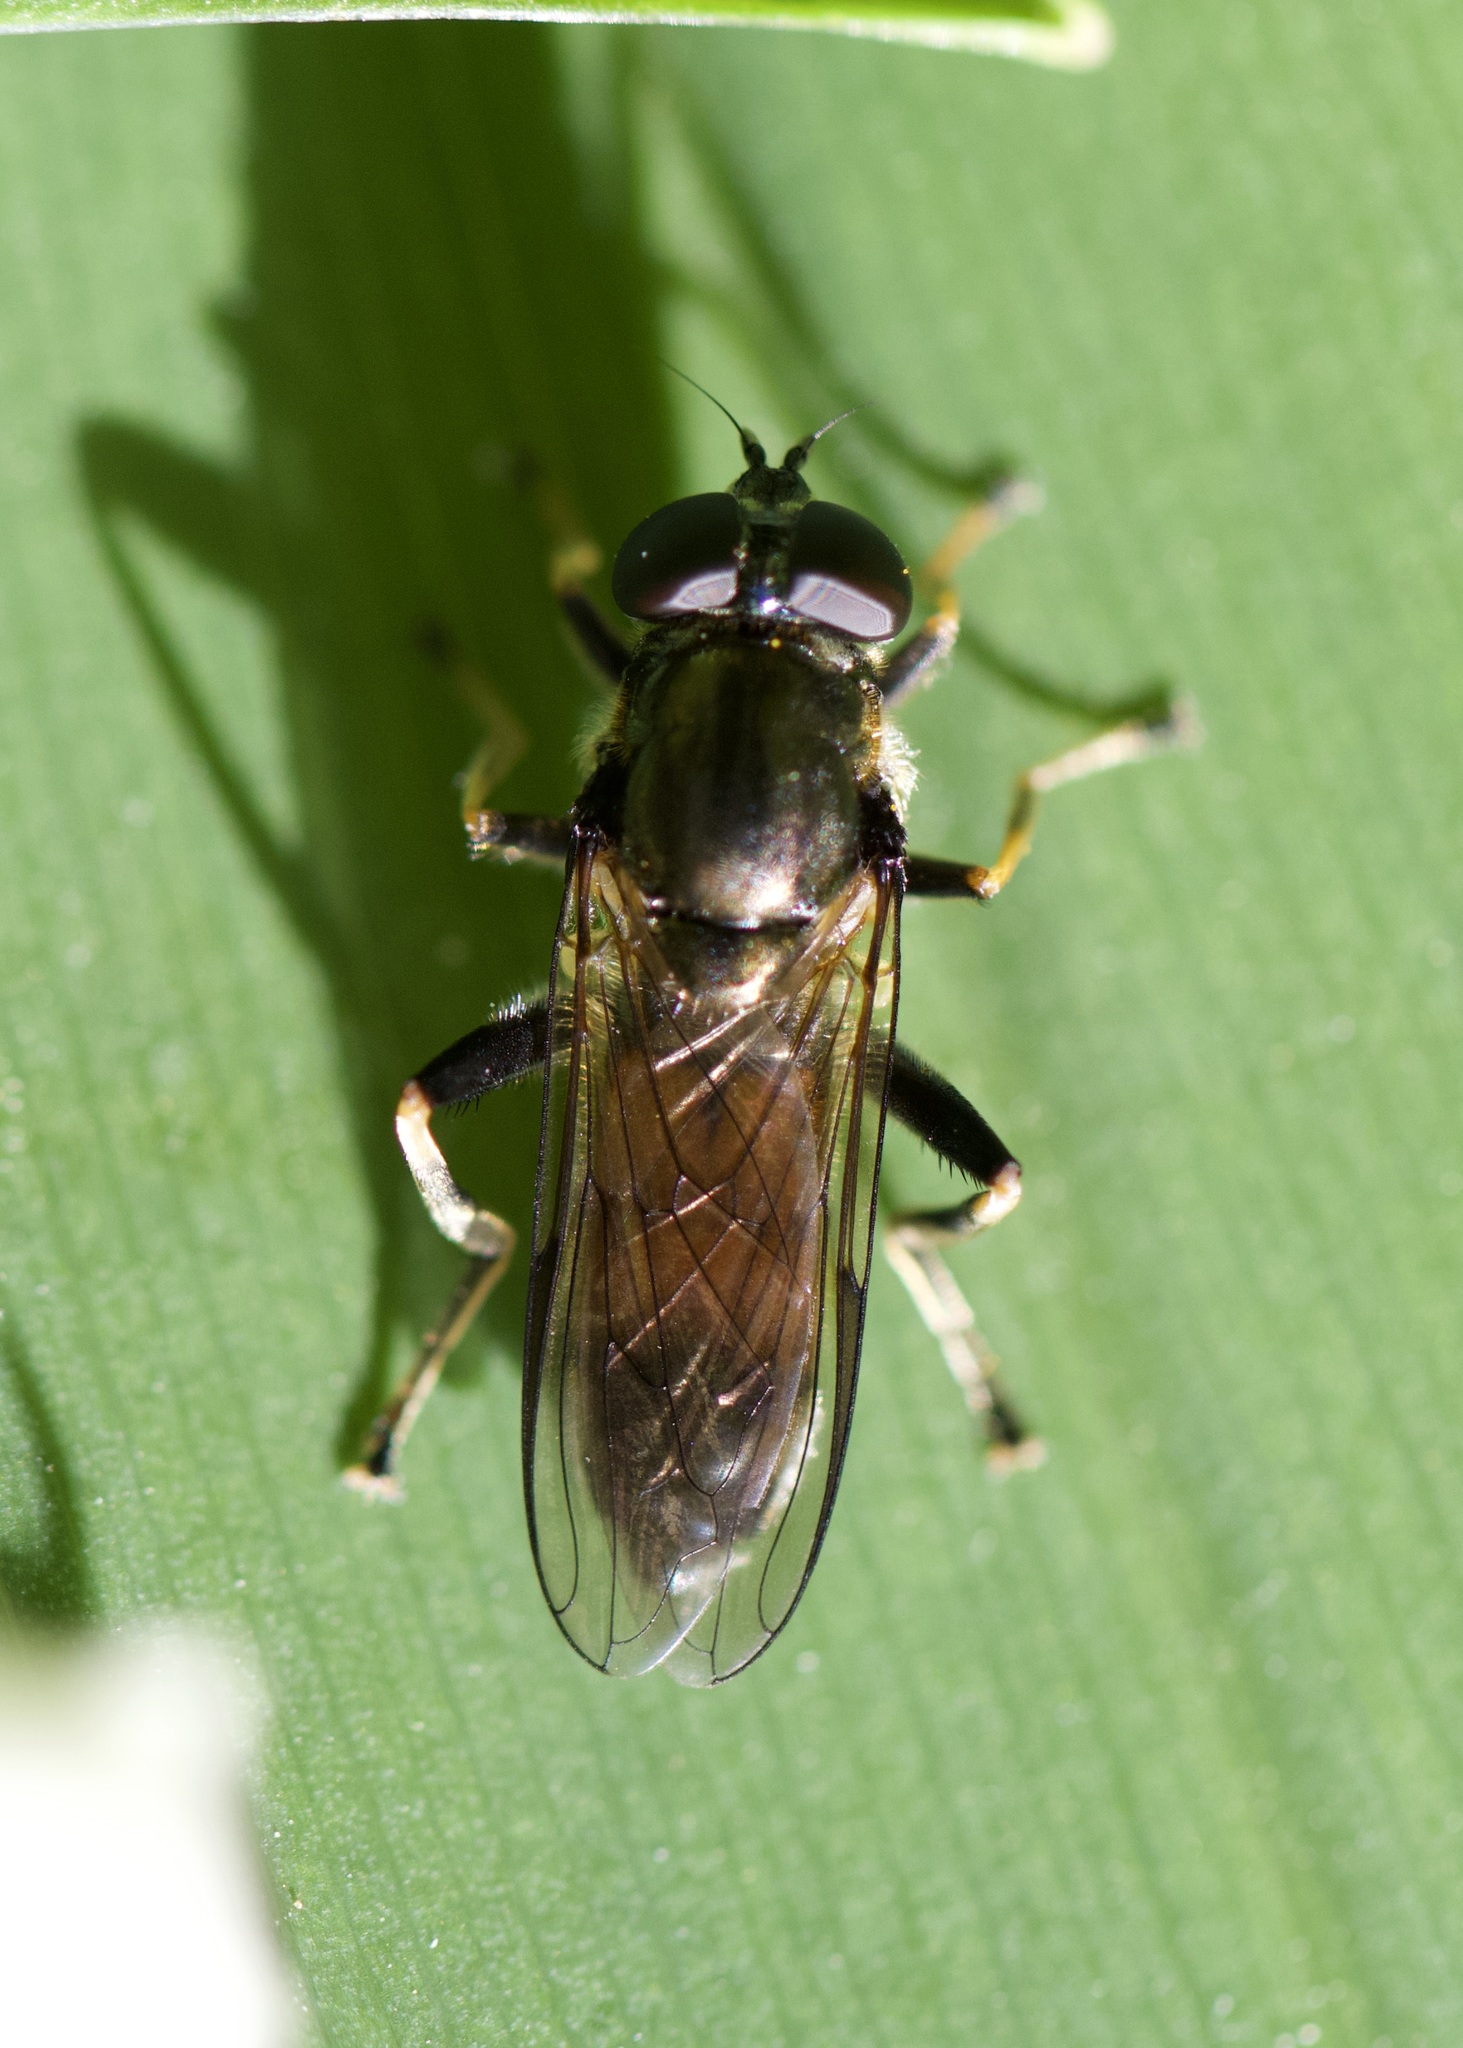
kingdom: Animalia
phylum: Arthropoda
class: Insecta
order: Diptera
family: Syrphidae
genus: Xylota
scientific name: Xylota segnis
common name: Brown-toed forest fly
